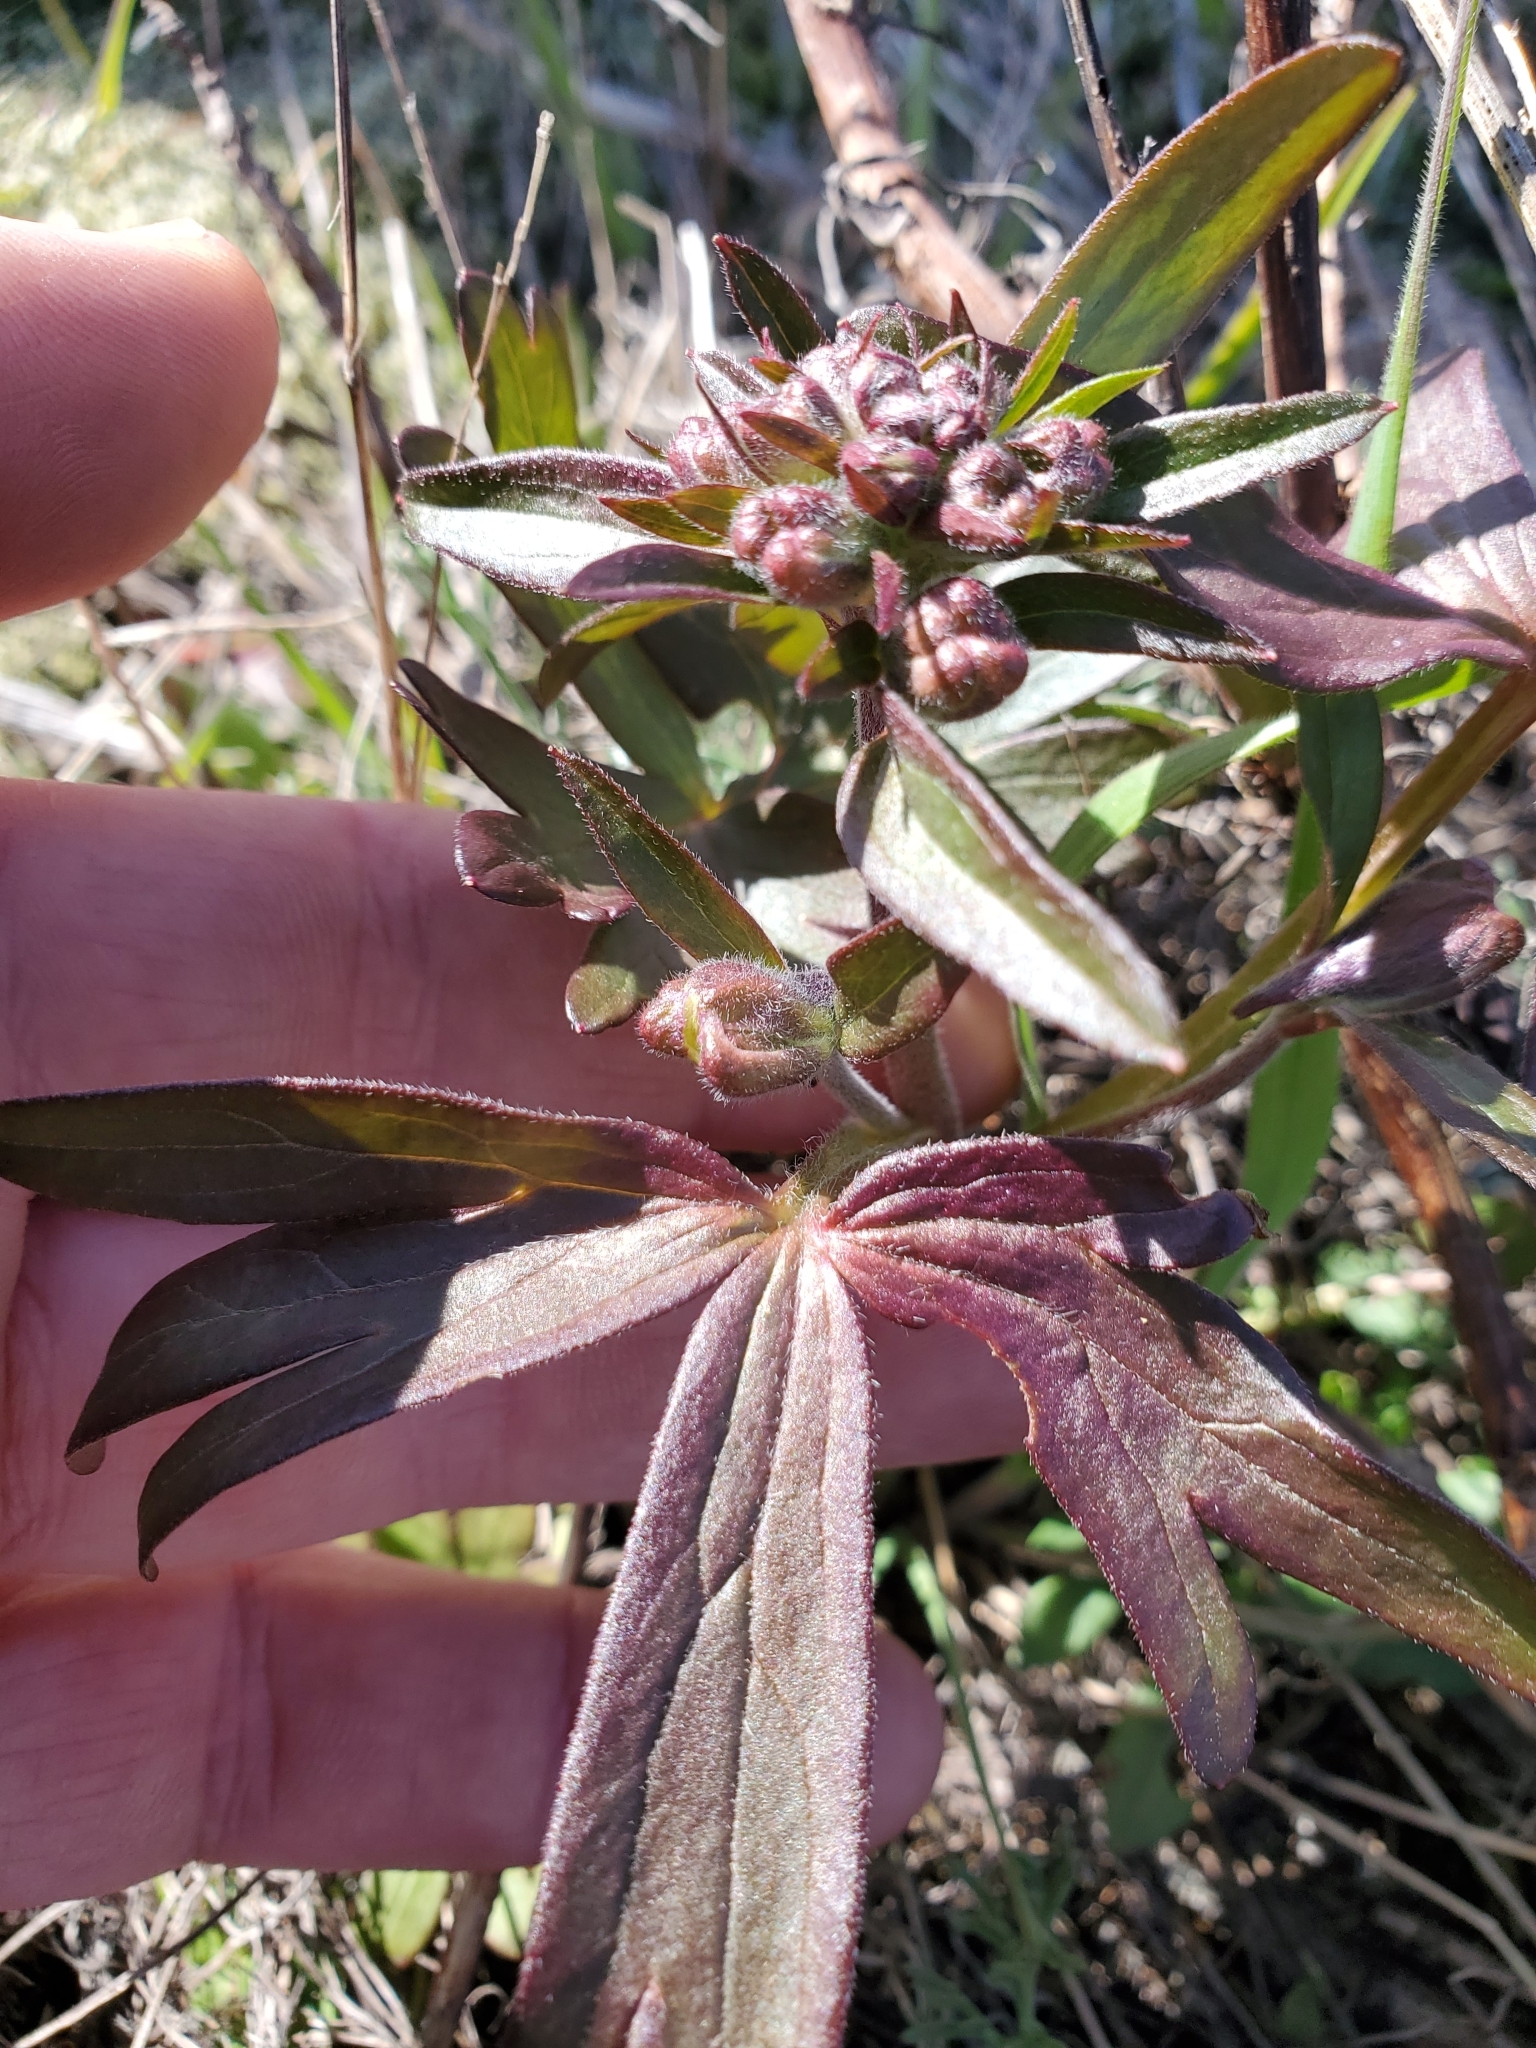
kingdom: Plantae
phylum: Tracheophyta
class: Magnoliopsida
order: Ranunculales
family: Ranunculaceae
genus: Delphinium
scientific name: Delphinium menziesii
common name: Menzies's larkspur
